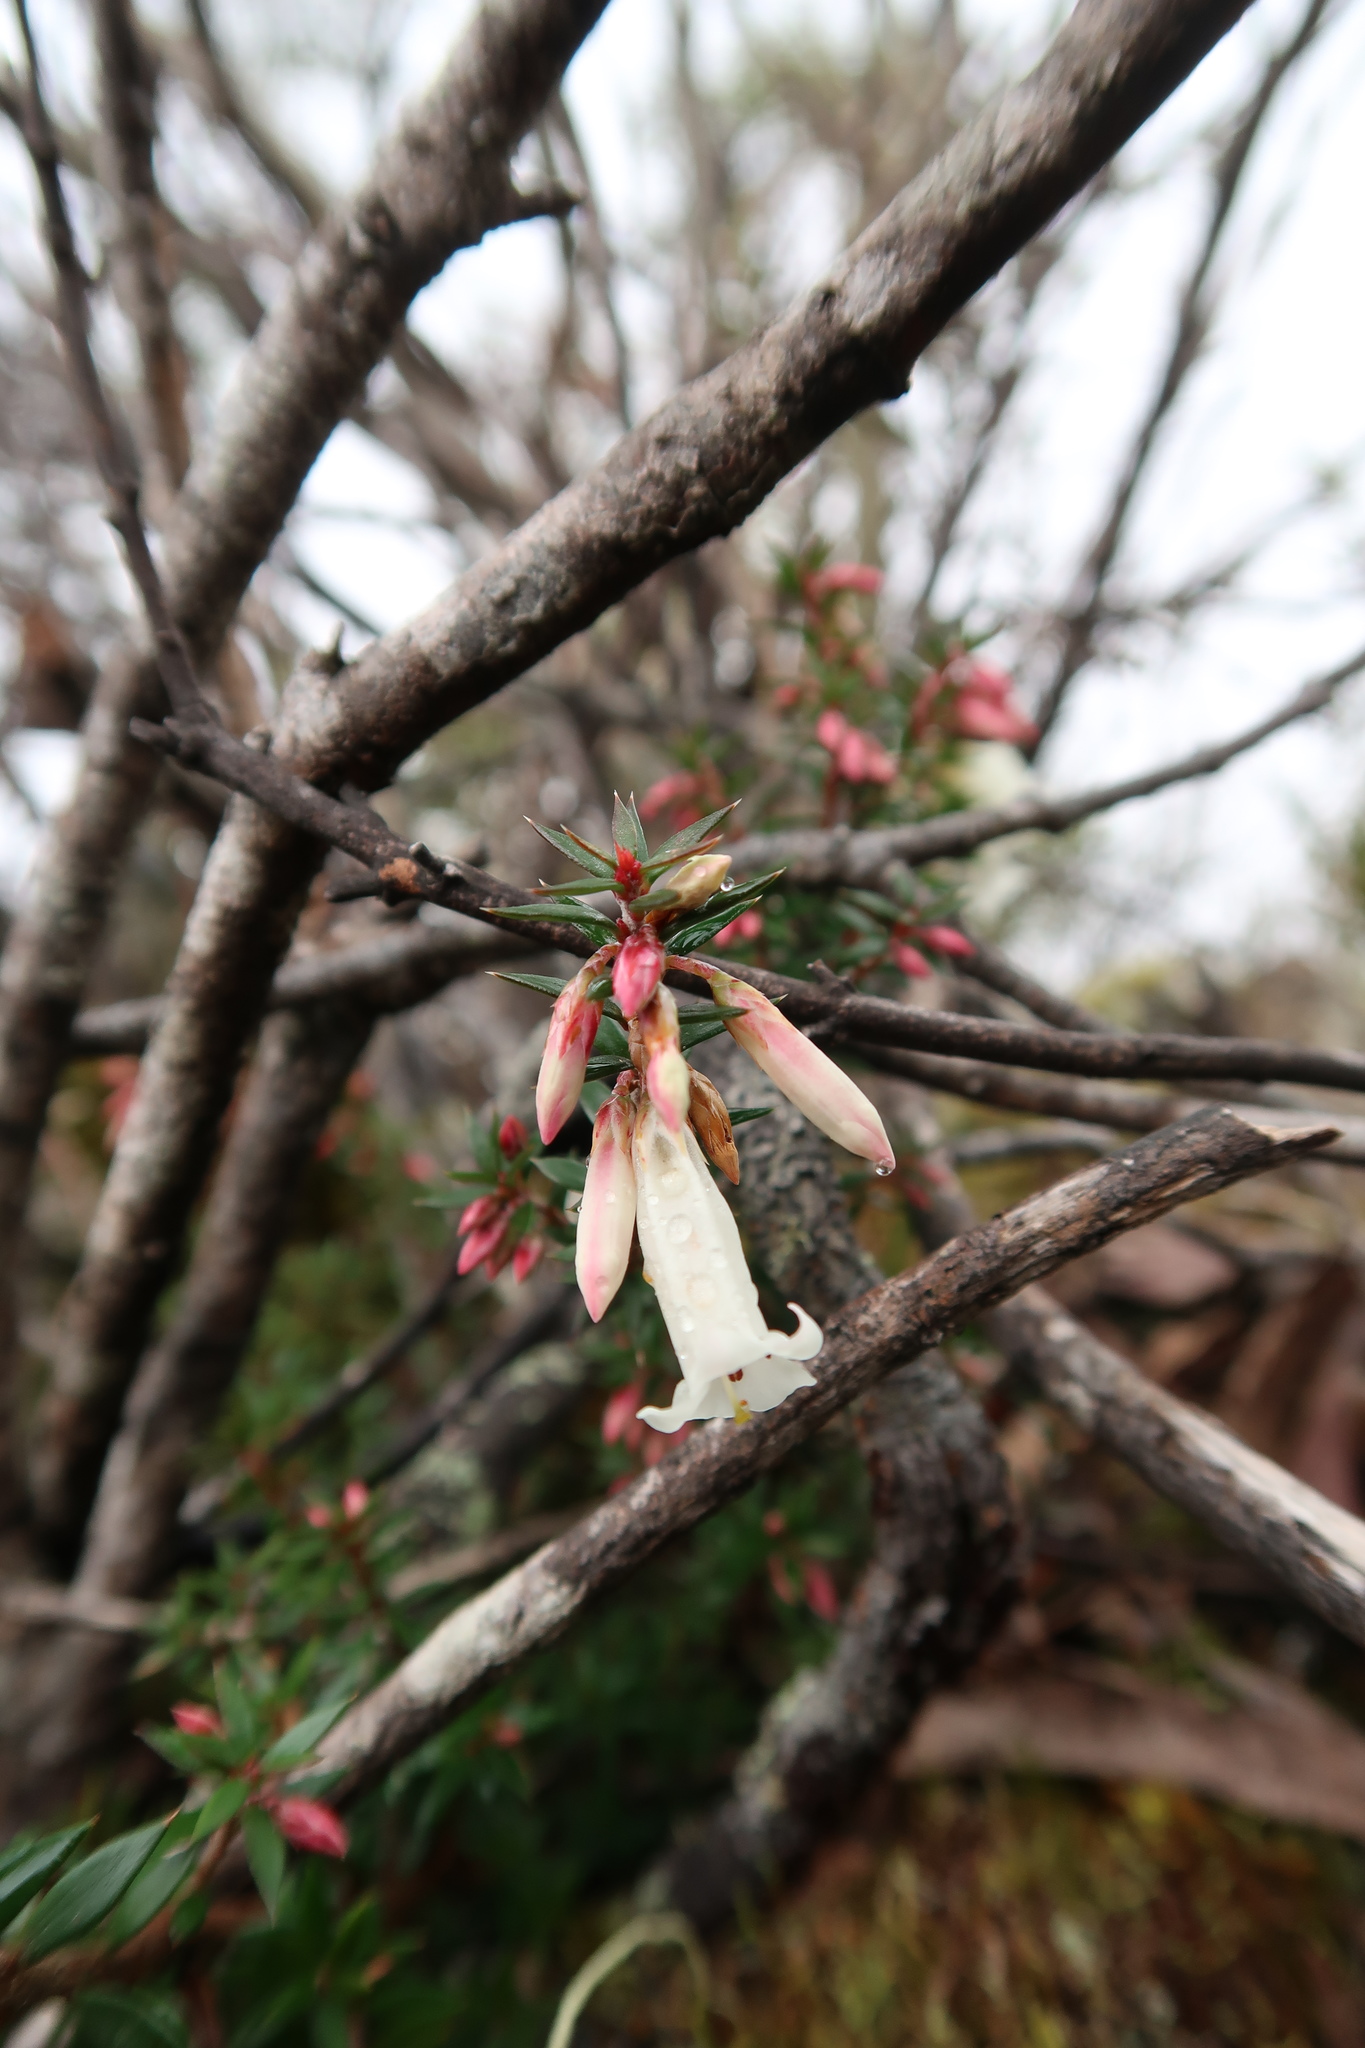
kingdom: Plantae
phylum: Tracheophyta
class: Magnoliopsida
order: Ericales
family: Ericaceae
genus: Epacris
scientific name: Epacris impressa
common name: Common-heath
